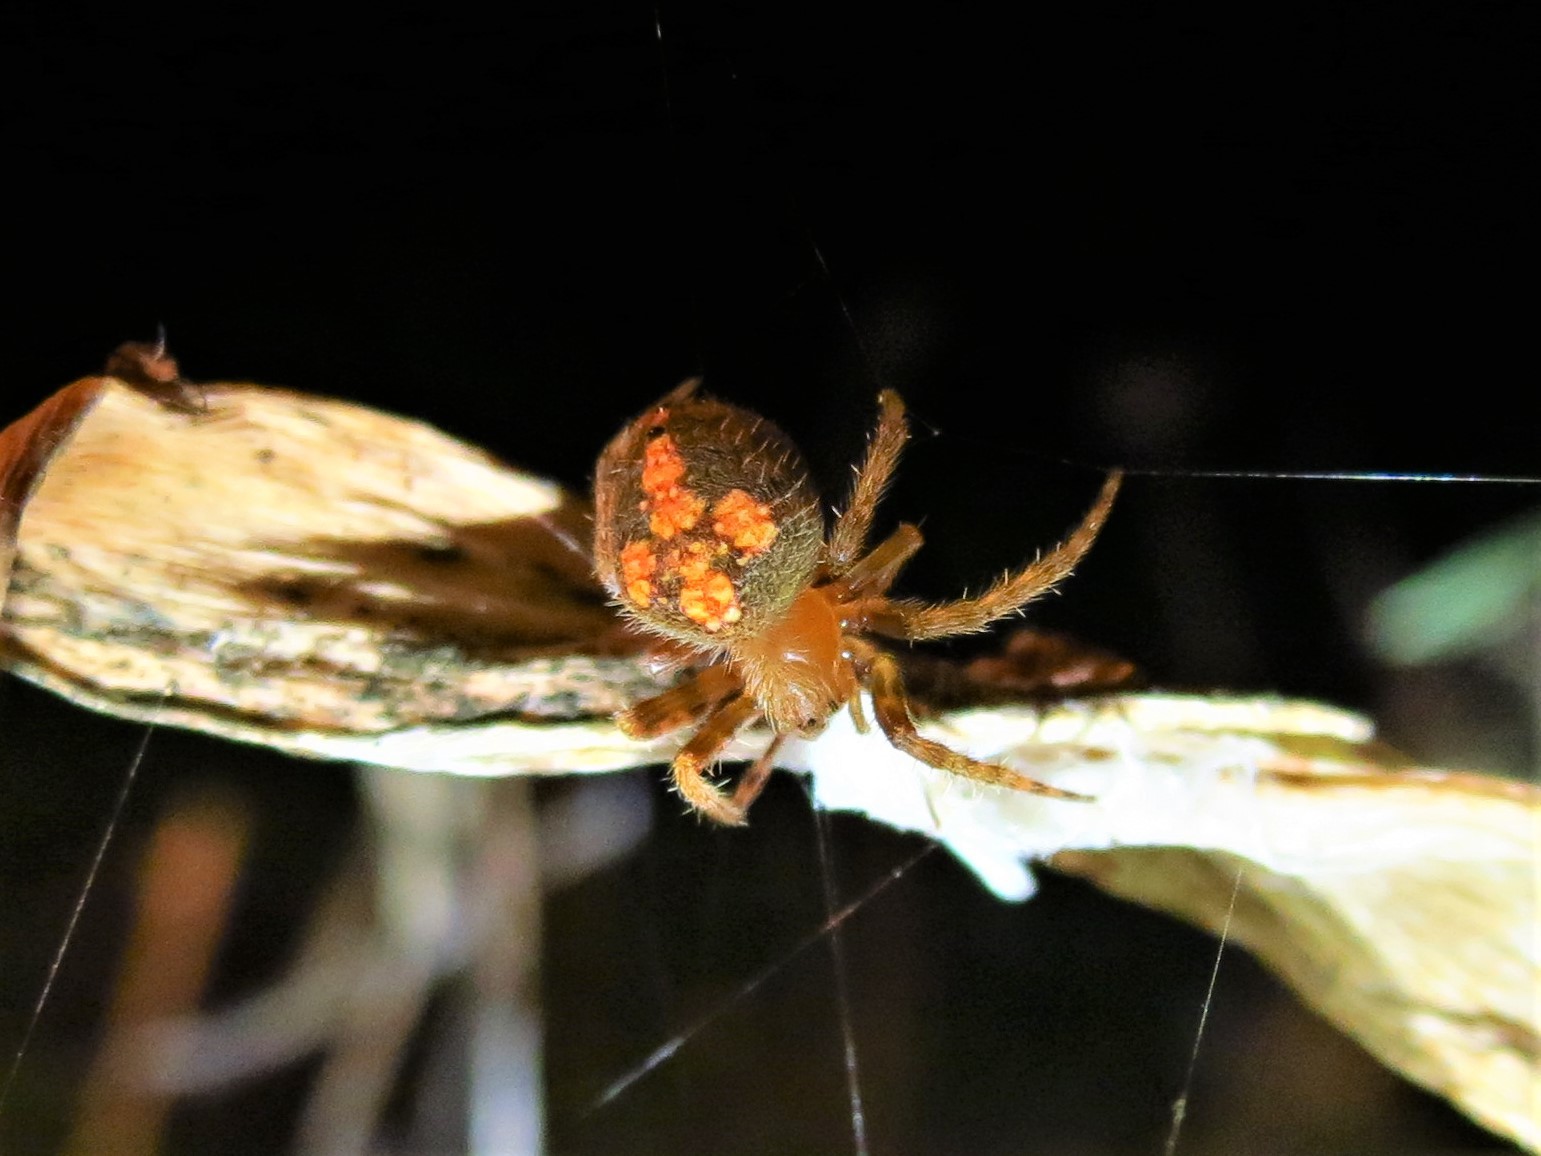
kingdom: Animalia
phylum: Arthropoda
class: Arachnida
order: Araneae
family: Araneidae
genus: Eriophora
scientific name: Eriophora ravilla
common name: Orb weavers
